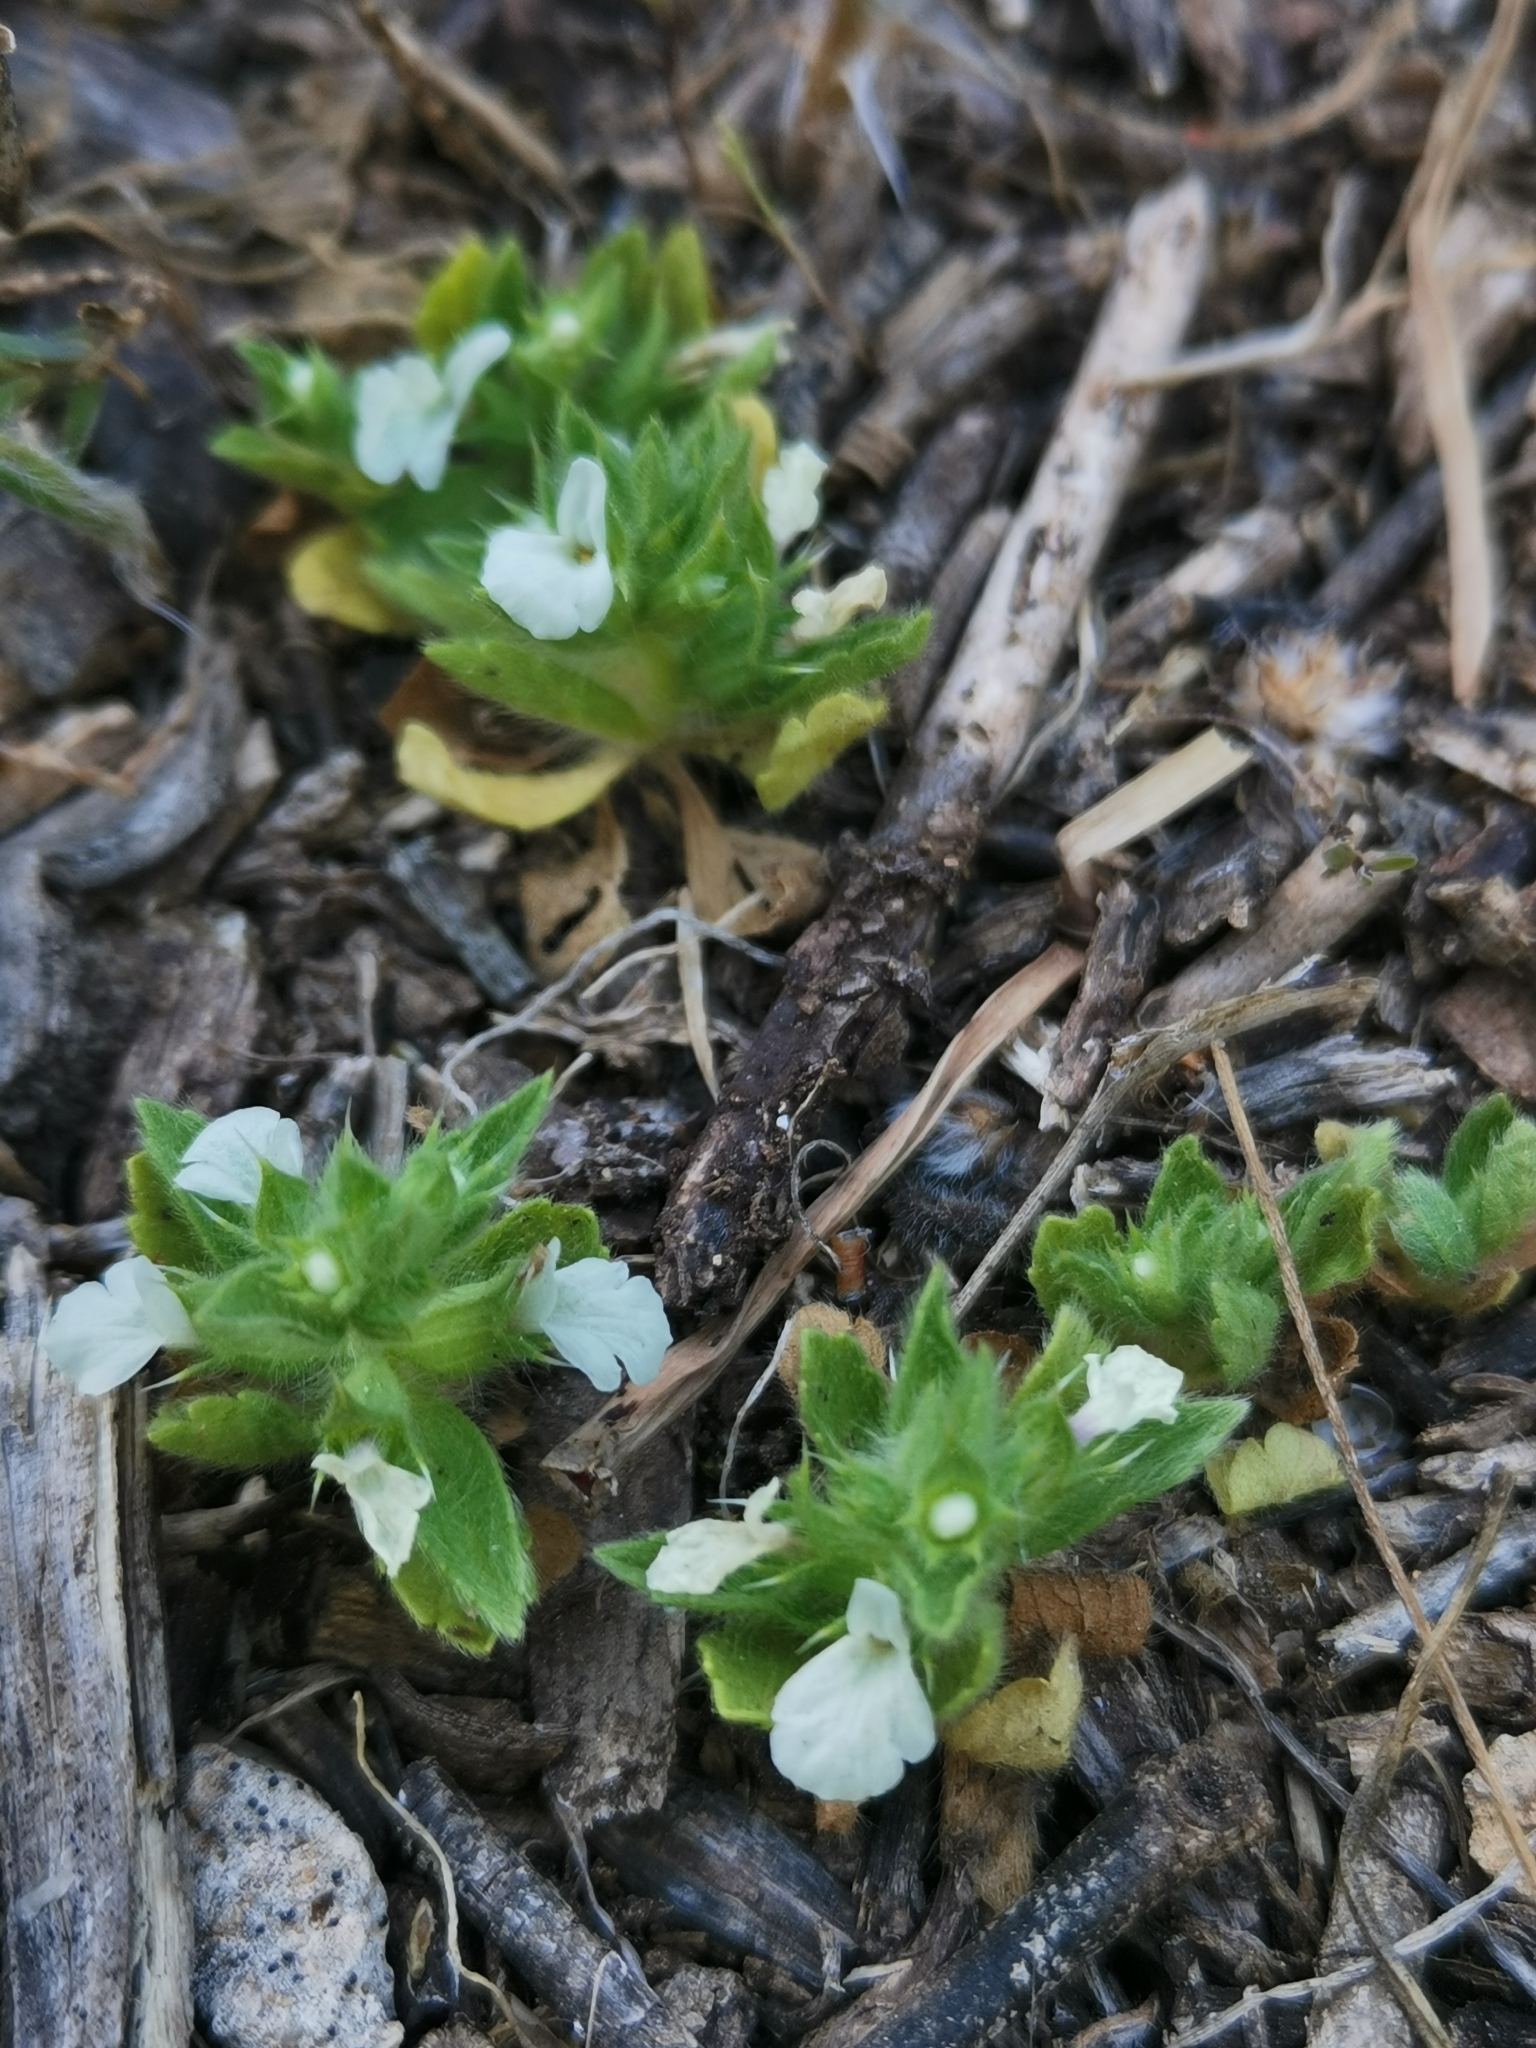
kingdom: Plantae
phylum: Tracheophyta
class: Magnoliopsida
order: Lamiales
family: Lamiaceae
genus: Sideritis
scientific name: Sideritis romana
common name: Simplebeak ironwort
